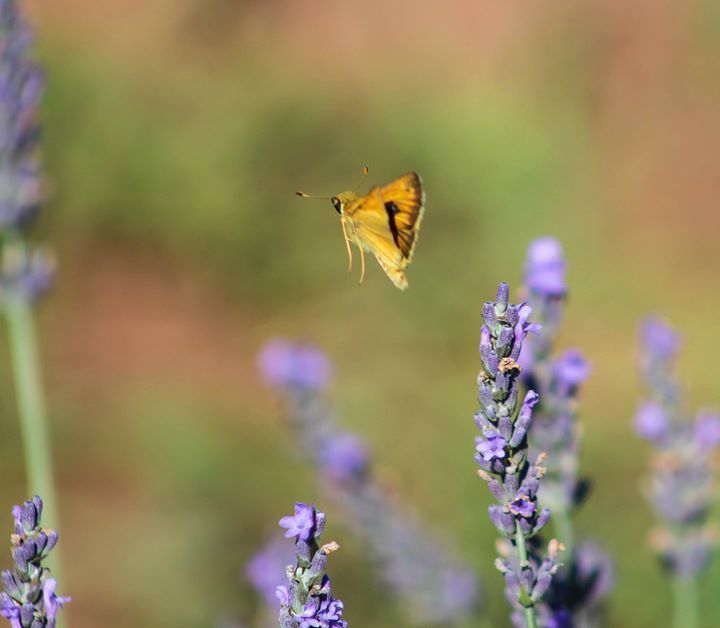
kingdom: Animalia
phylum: Arthropoda
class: Insecta
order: Lepidoptera
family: Hesperiidae
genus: Atalopedes
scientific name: Atalopedes
